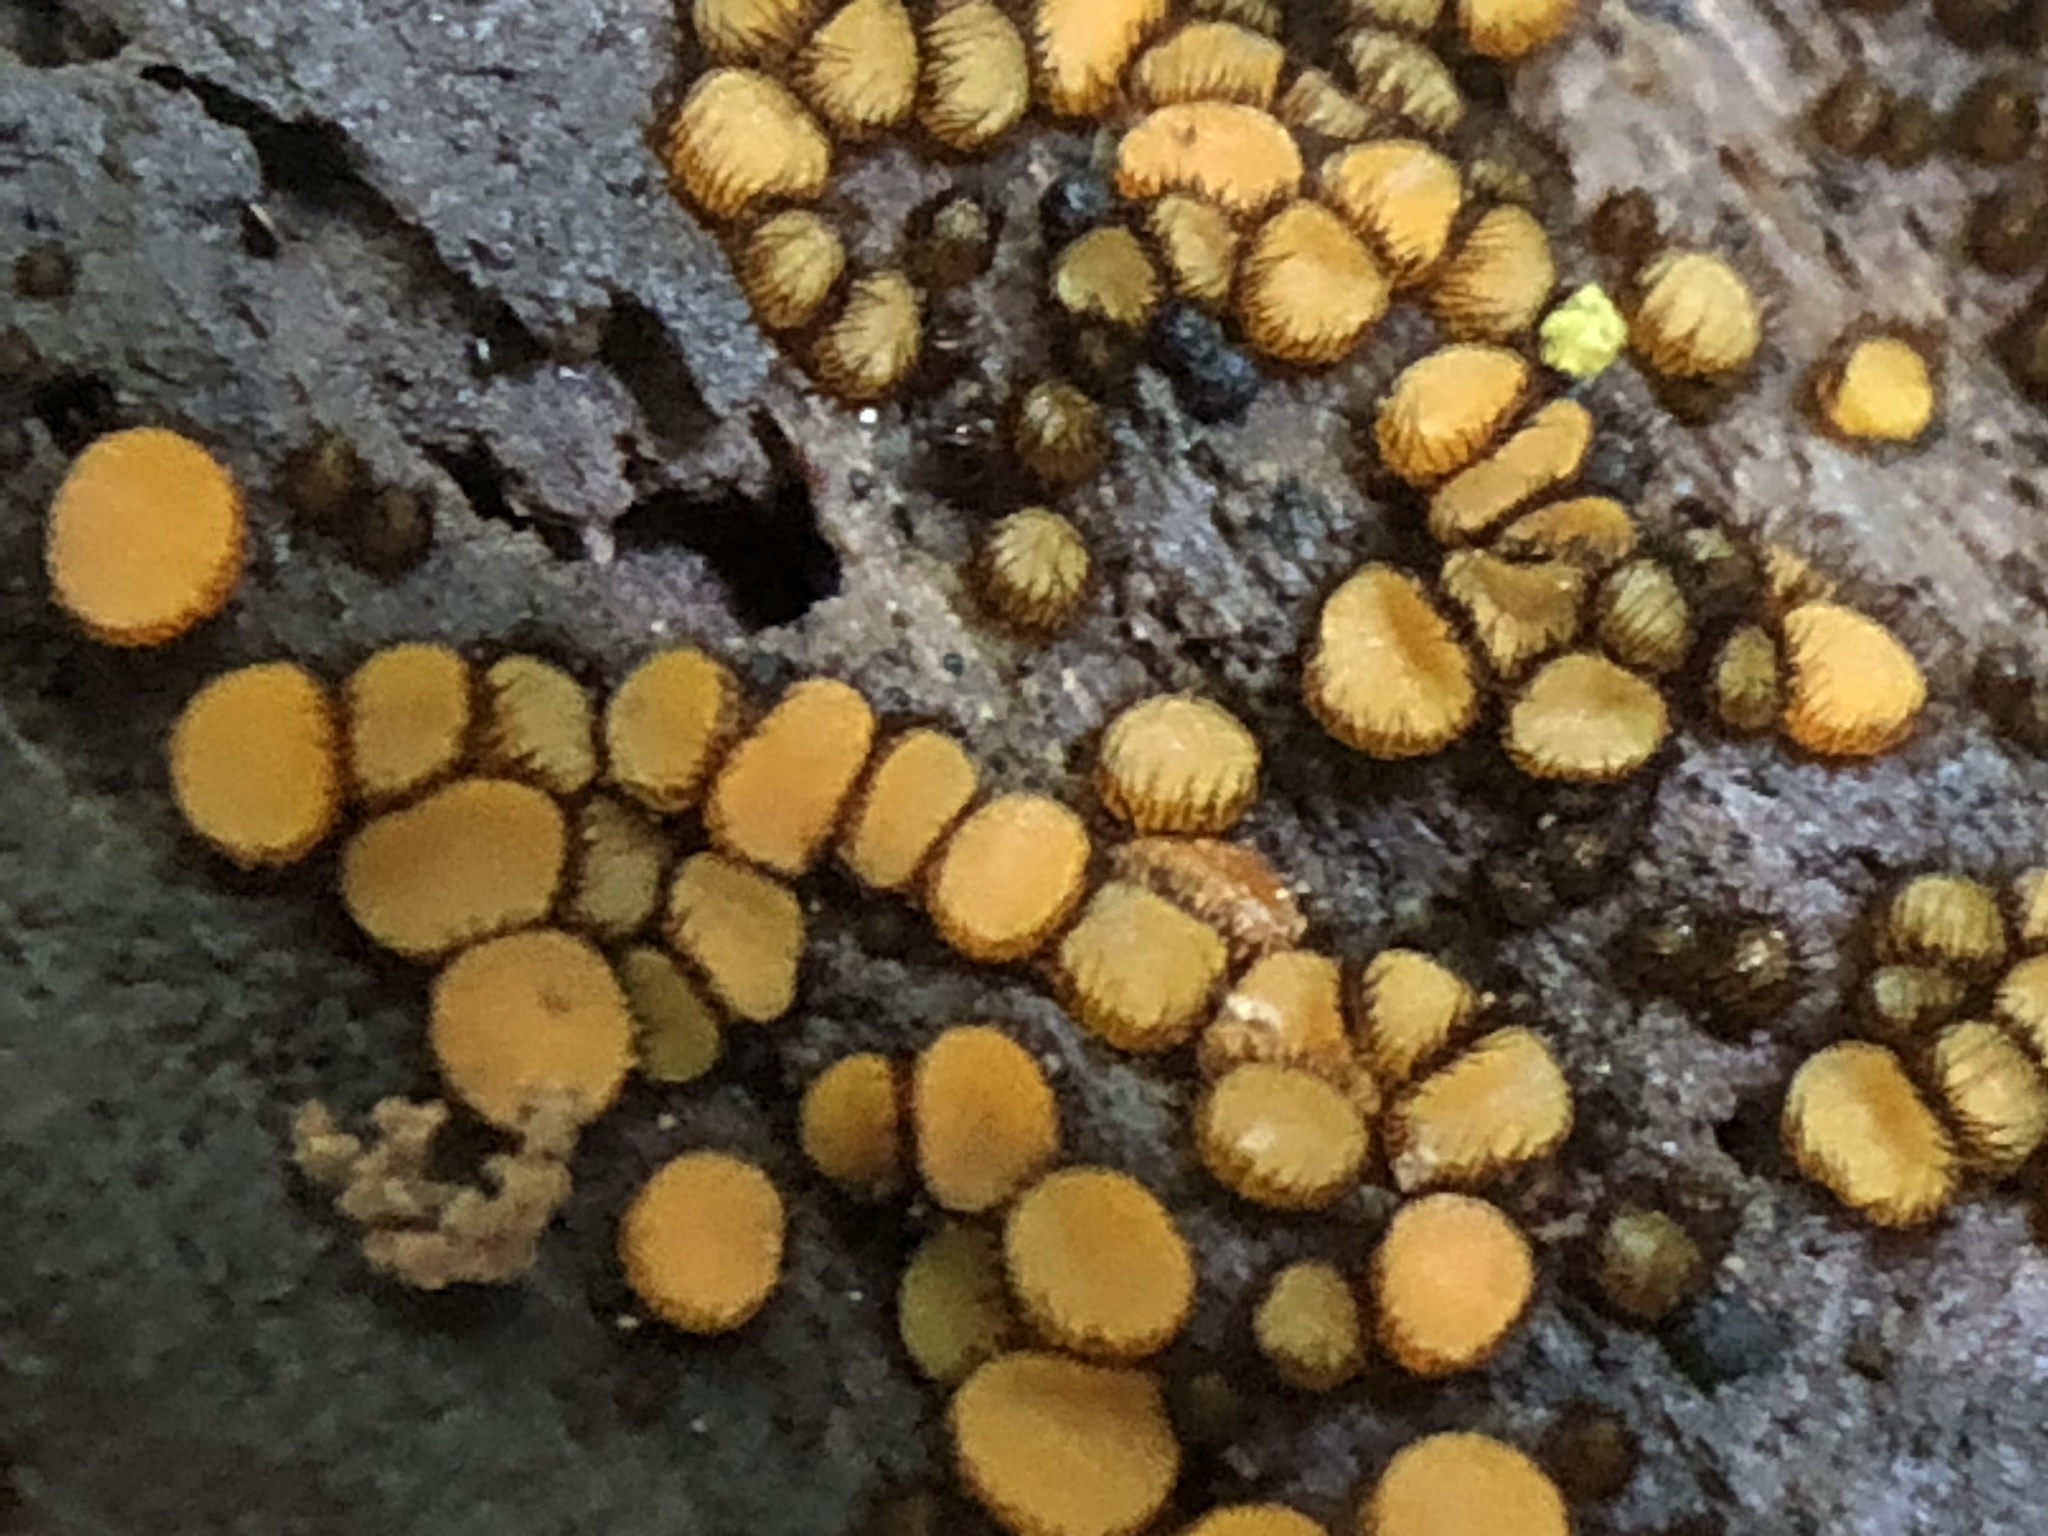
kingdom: Fungi
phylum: Ascomycota
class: Pezizomycetes
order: Pezizales
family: Pyronemataceae
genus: Scutellinia
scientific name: Scutellinia setosa
